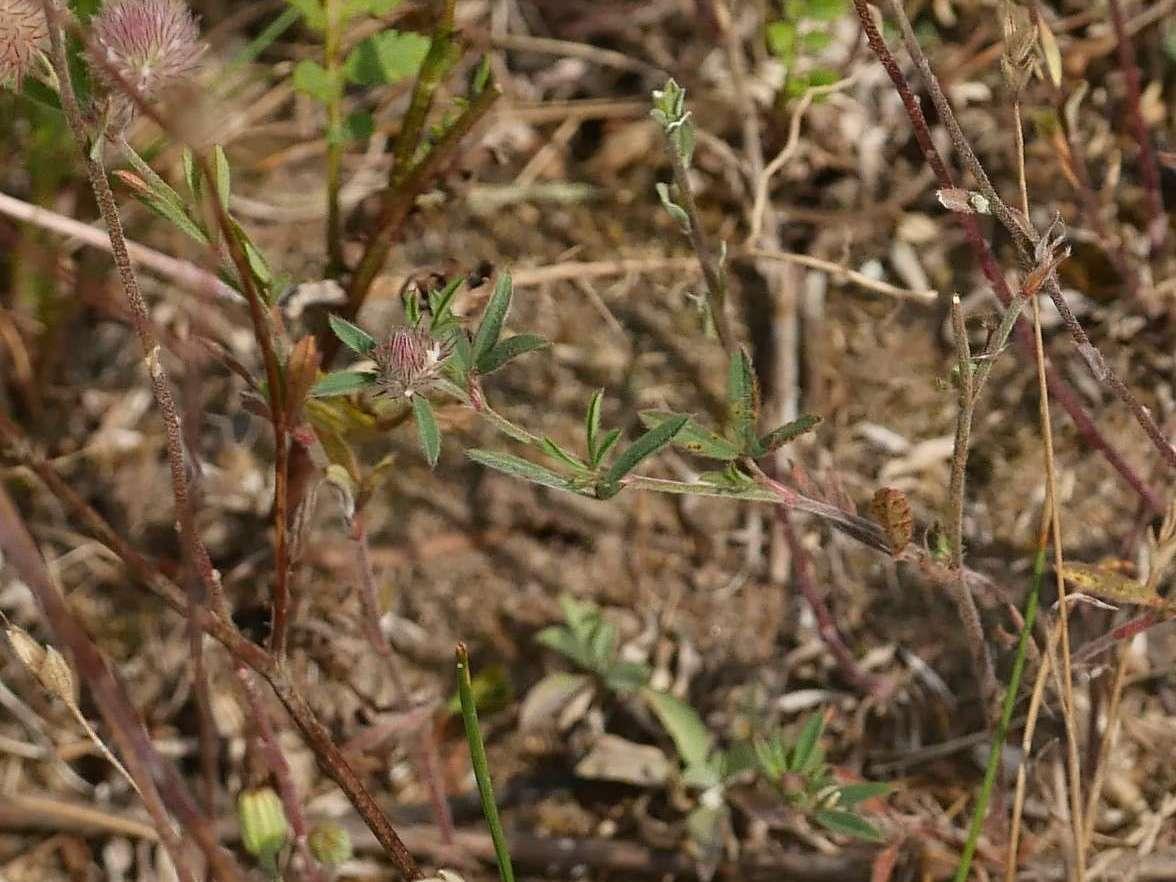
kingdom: Plantae
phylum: Tracheophyta
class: Magnoliopsida
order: Fabales
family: Fabaceae
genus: Trifolium
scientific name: Trifolium arvense
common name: Hare's-foot clover
